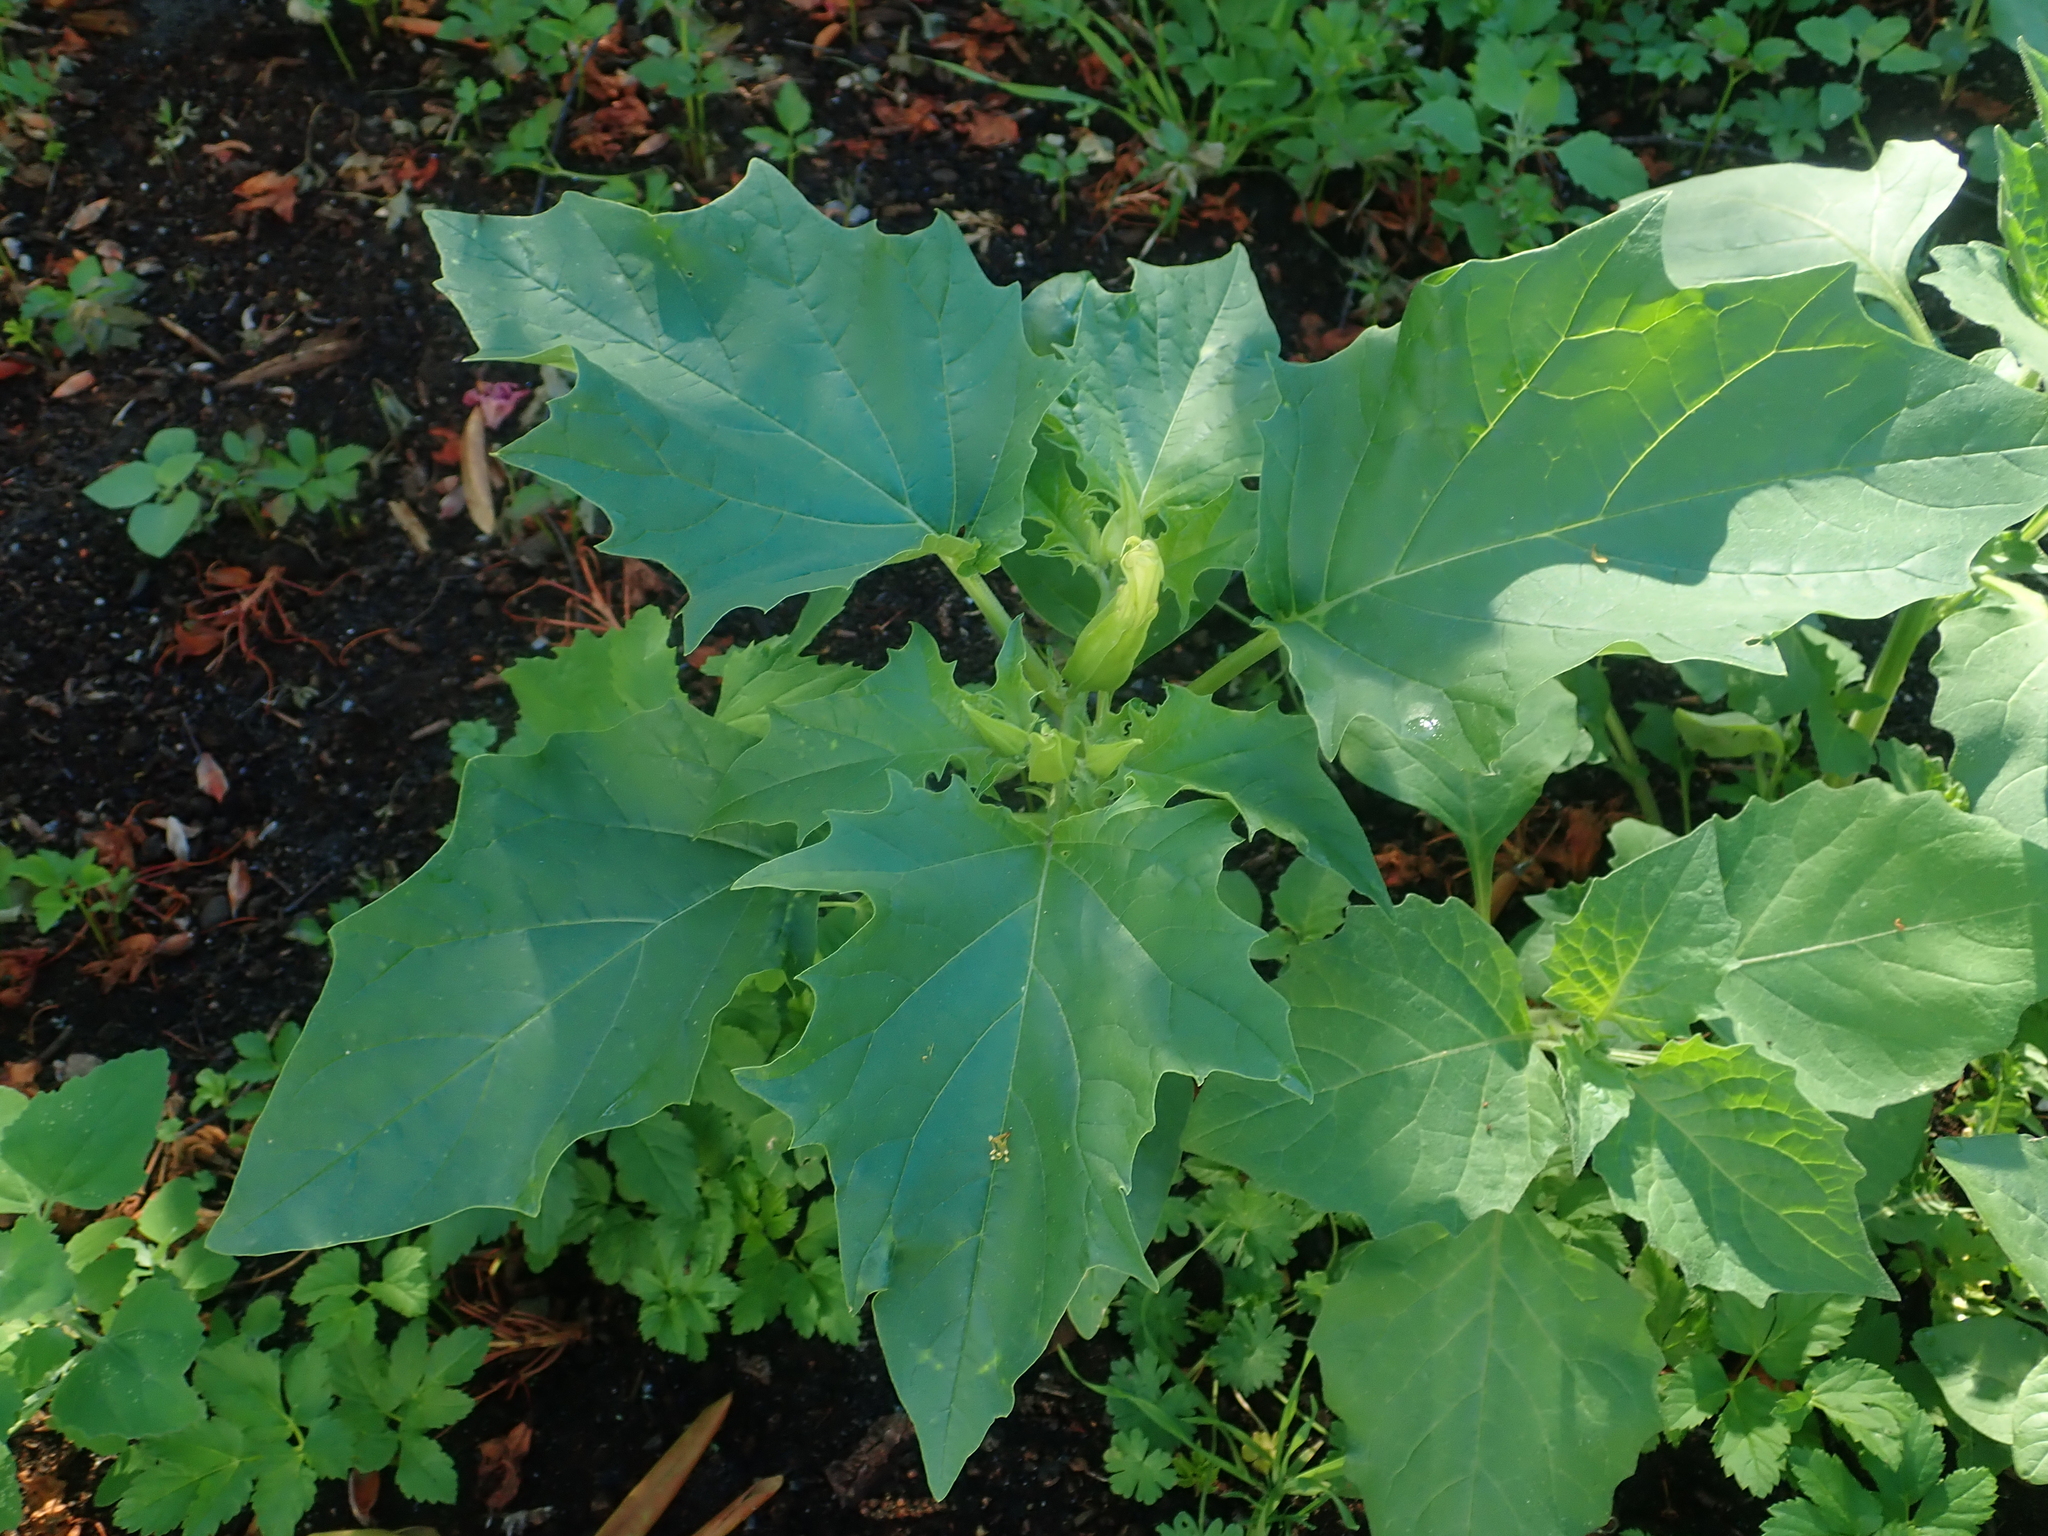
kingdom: Plantae
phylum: Tracheophyta
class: Magnoliopsida
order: Solanales
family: Solanaceae
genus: Datura
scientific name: Datura stramonium
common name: Thorn-apple
